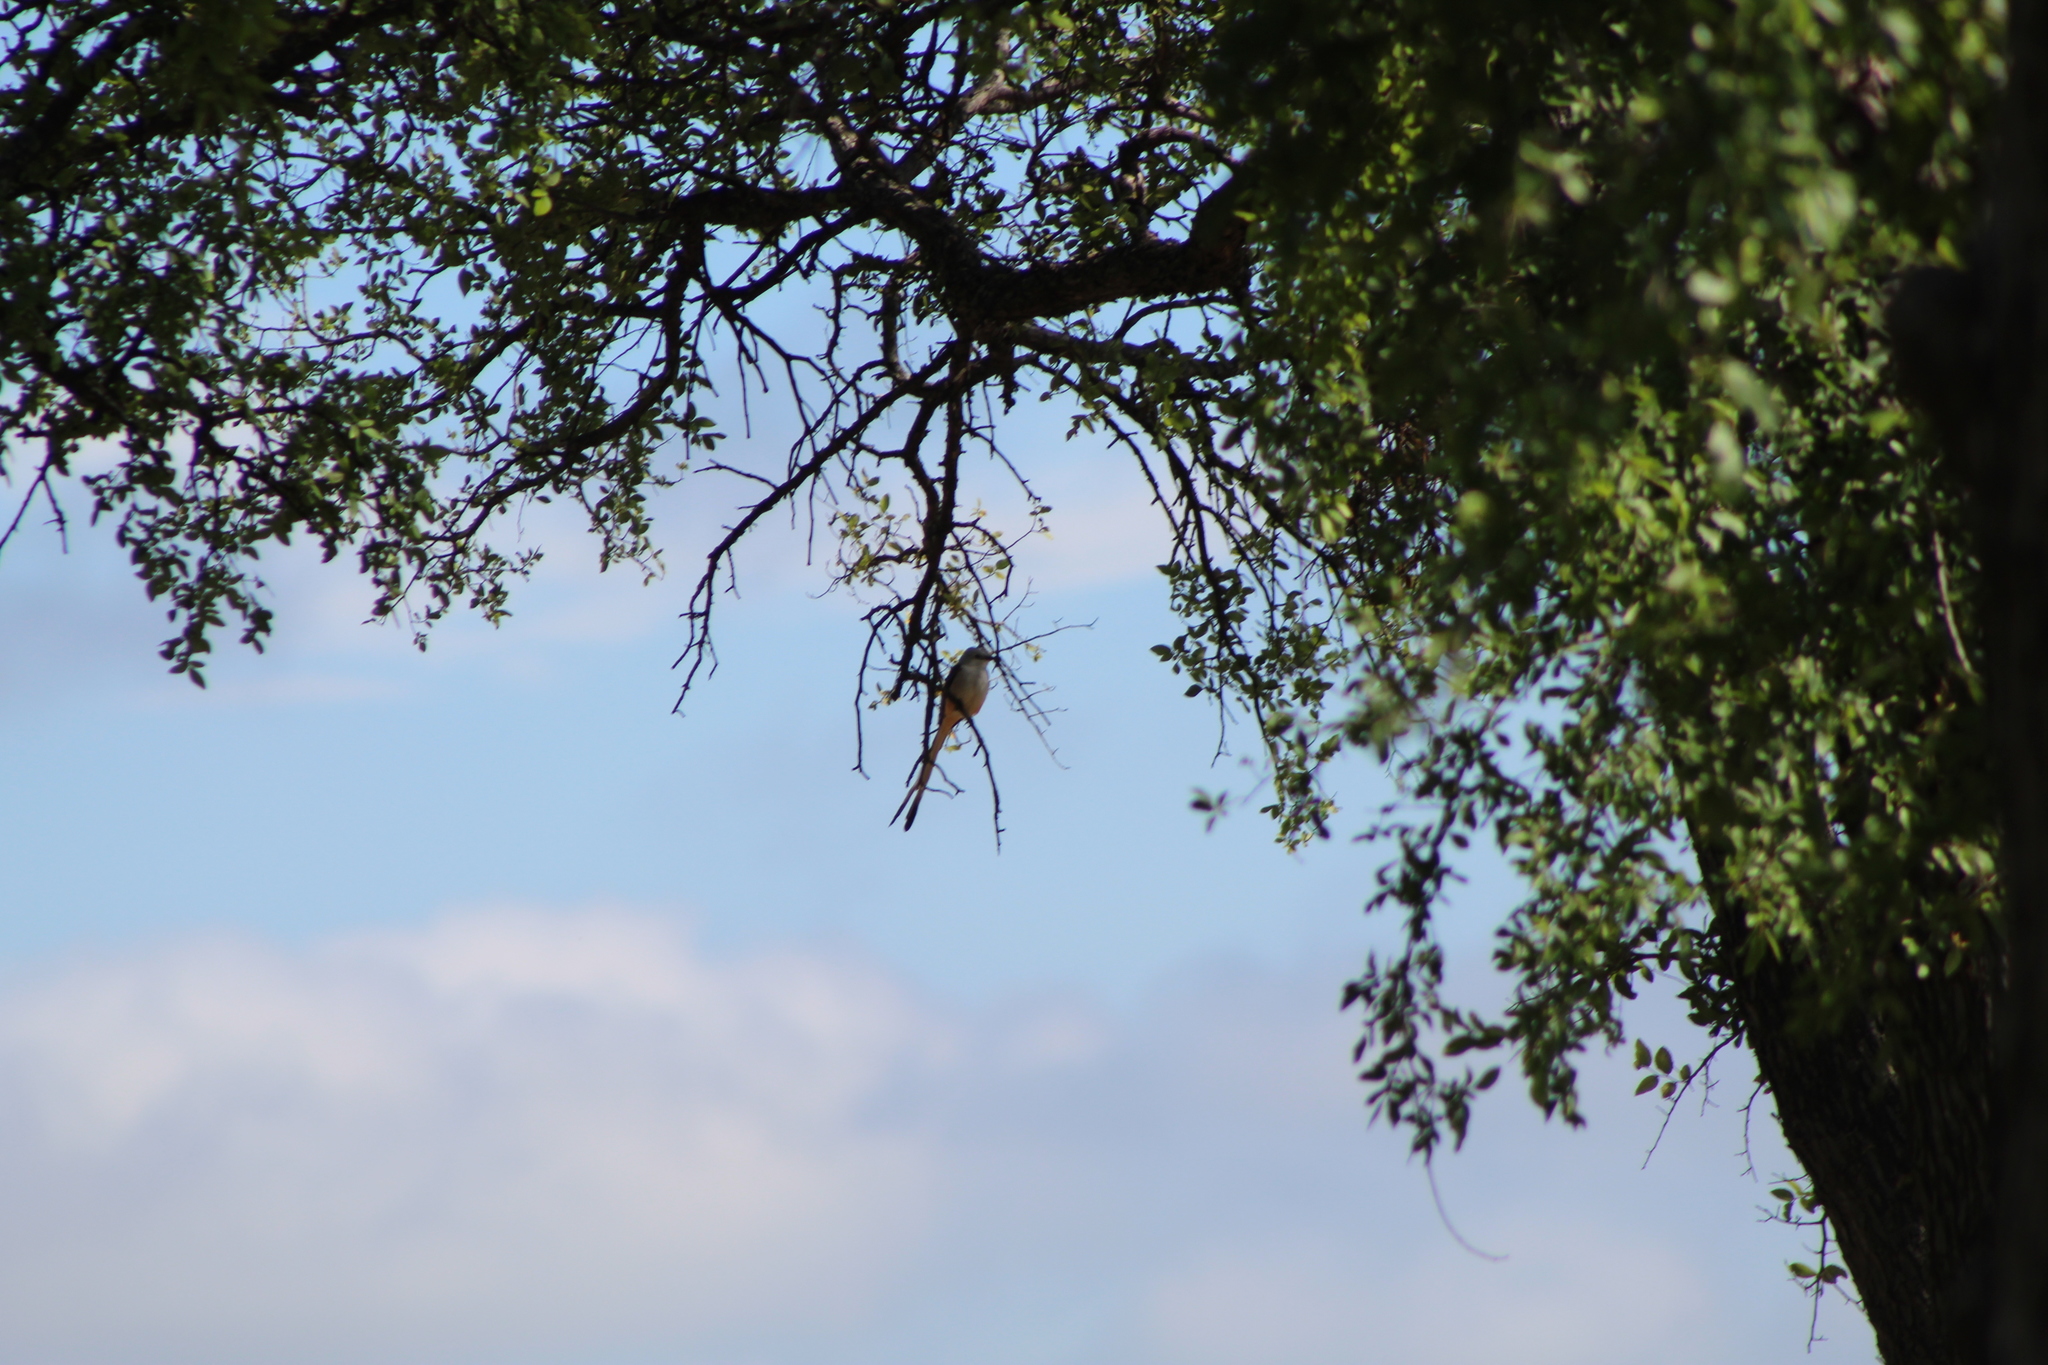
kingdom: Animalia
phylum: Chordata
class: Aves
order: Passeriformes
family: Tyrannidae
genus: Tyrannus
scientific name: Tyrannus forficatus
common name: Scissor-tailed flycatcher
